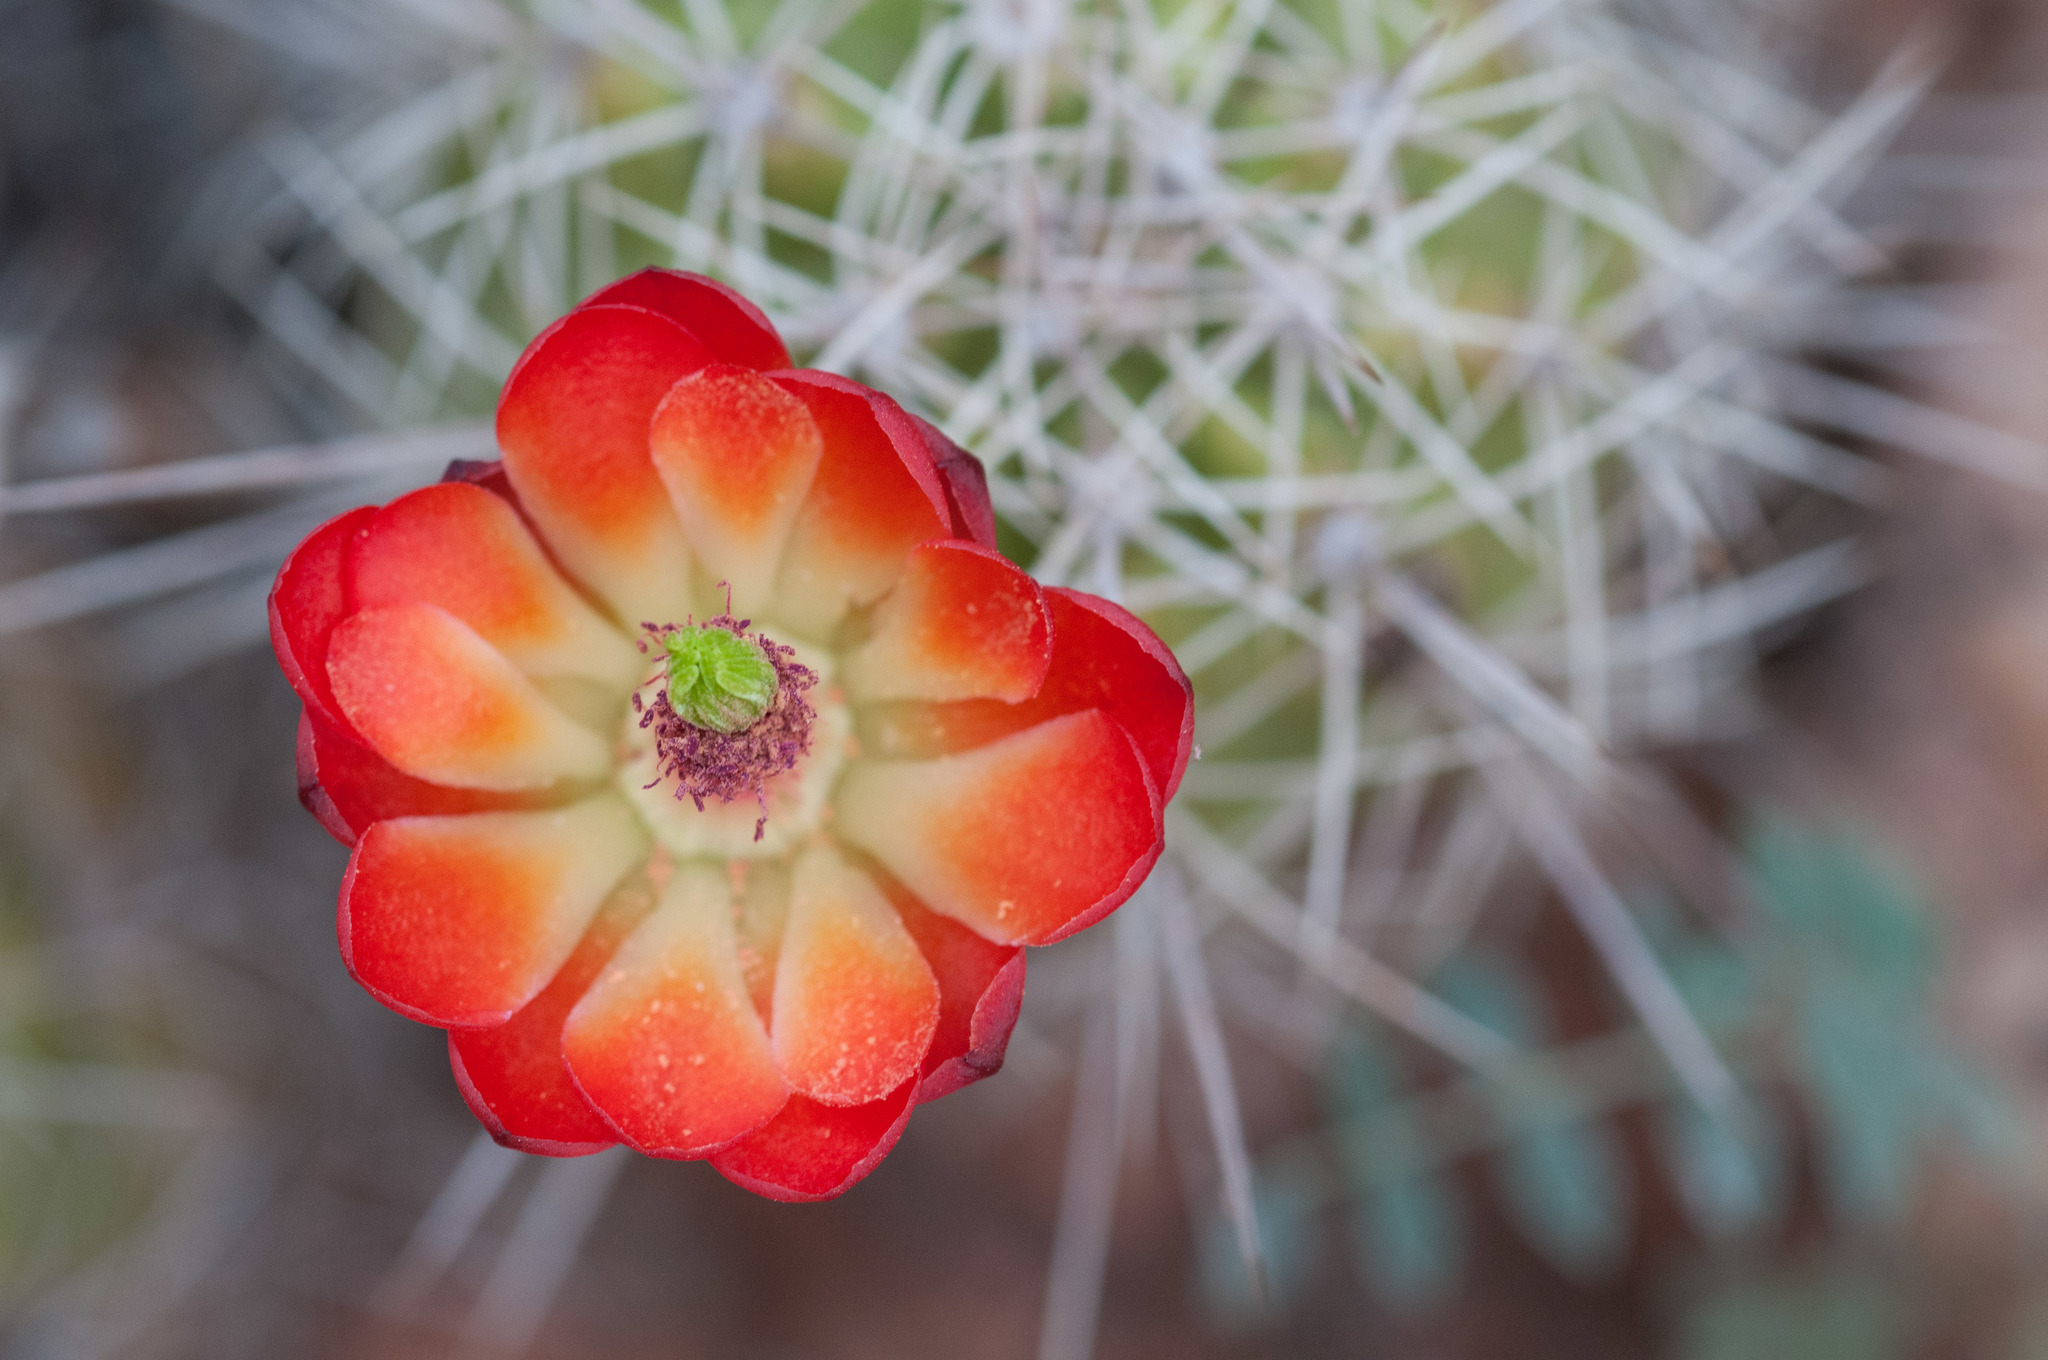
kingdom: Plantae
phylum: Tracheophyta
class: Magnoliopsida
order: Caryophyllales
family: Cactaceae
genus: Echinocereus
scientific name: Echinocereus triglochidiatus
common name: Claretcup hedgehog
